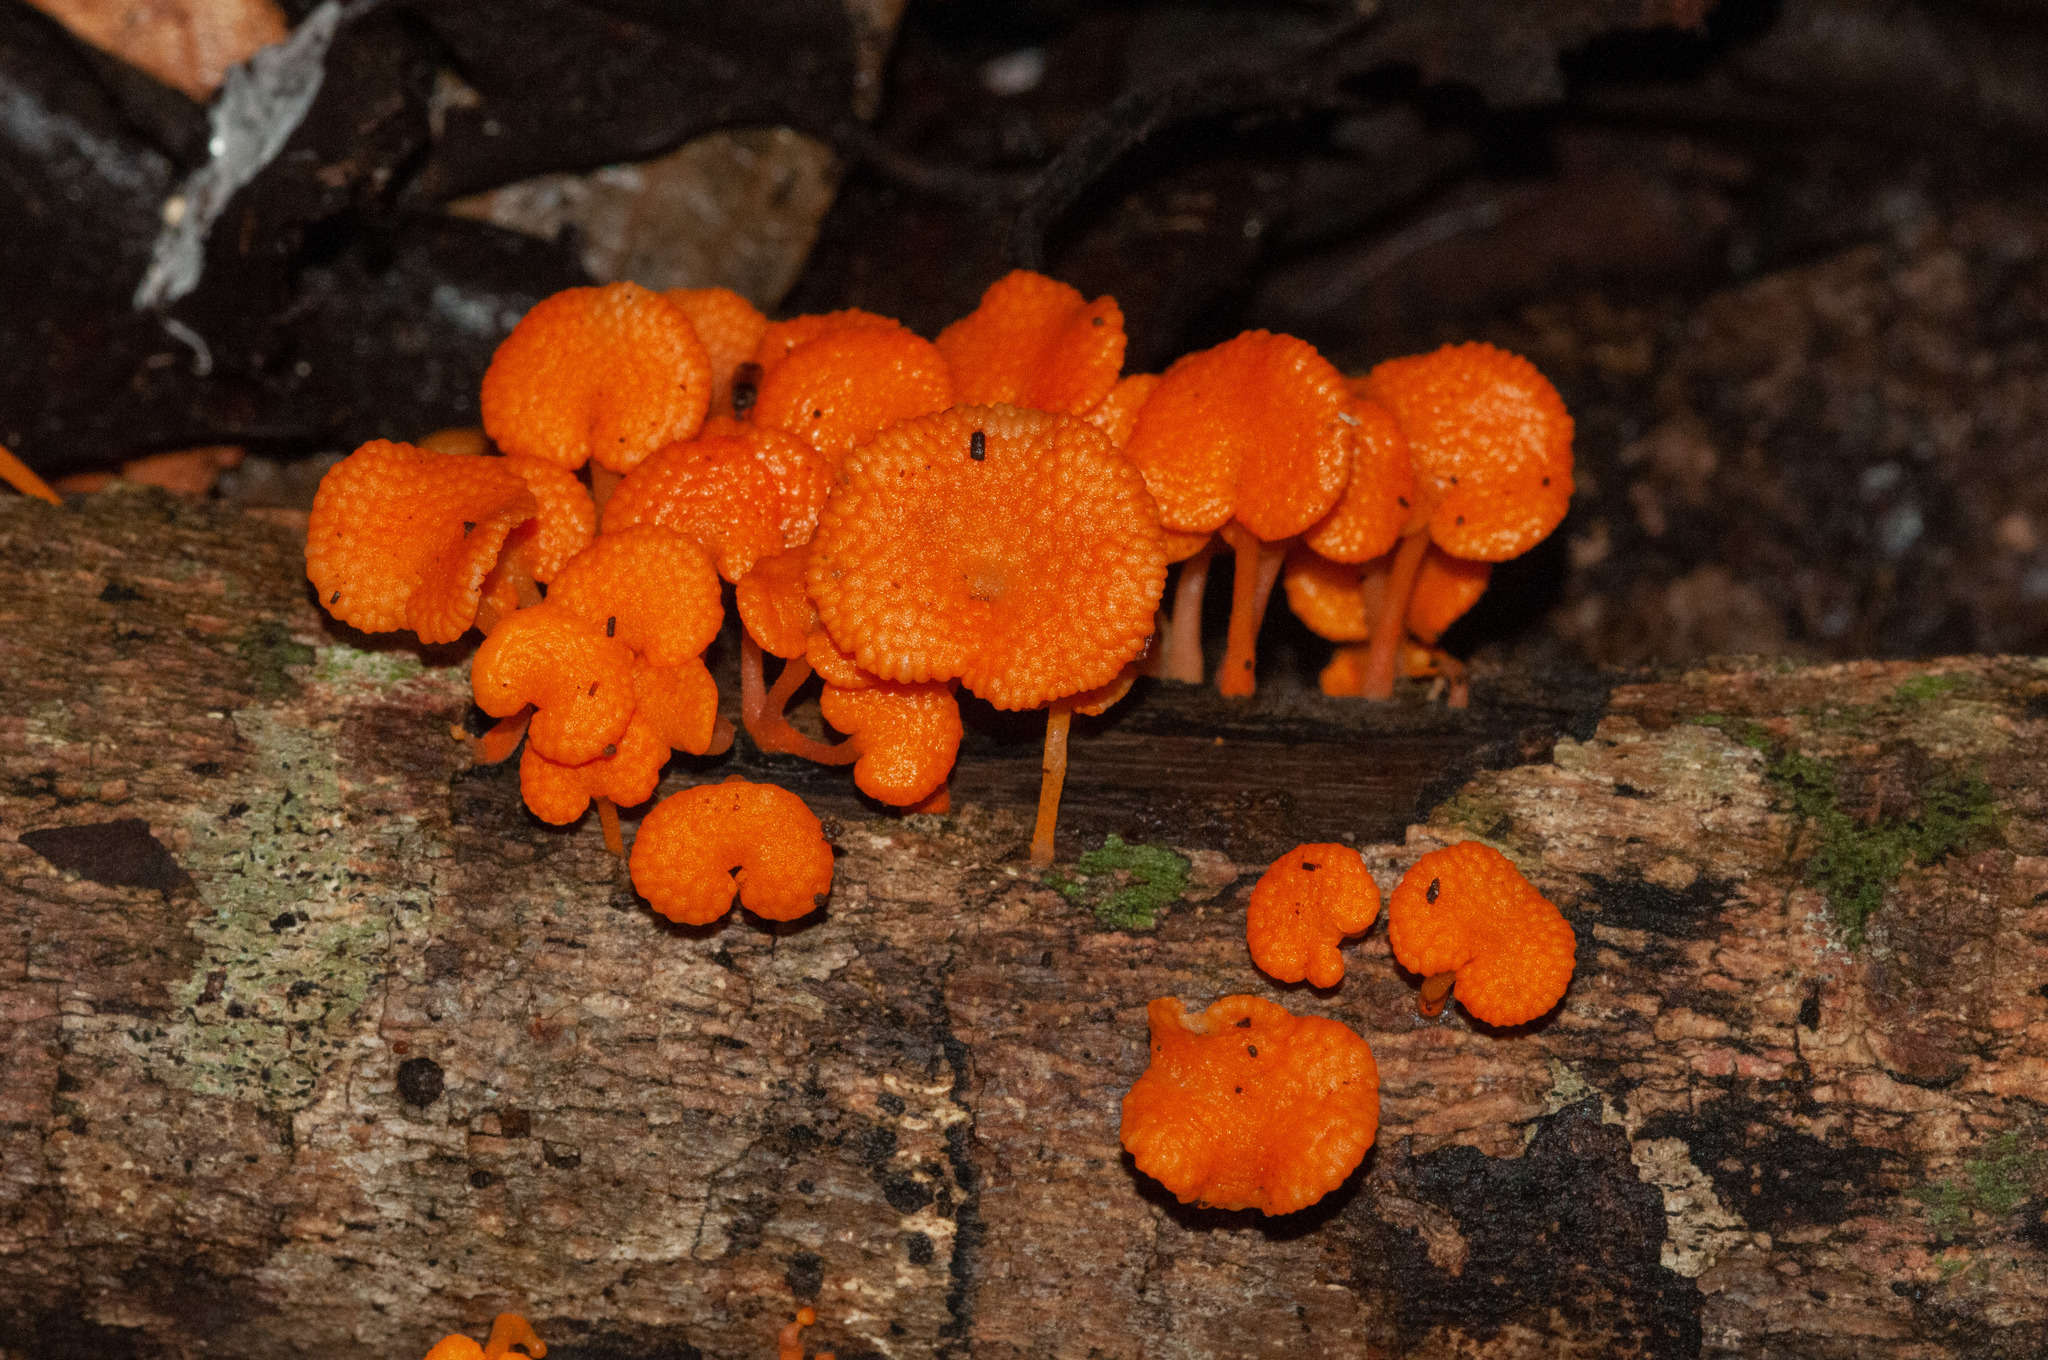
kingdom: Fungi
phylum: Basidiomycota
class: Agaricomycetes
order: Agaricales
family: Mycenaceae
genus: Favolaschia
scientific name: Favolaschia claudopus
